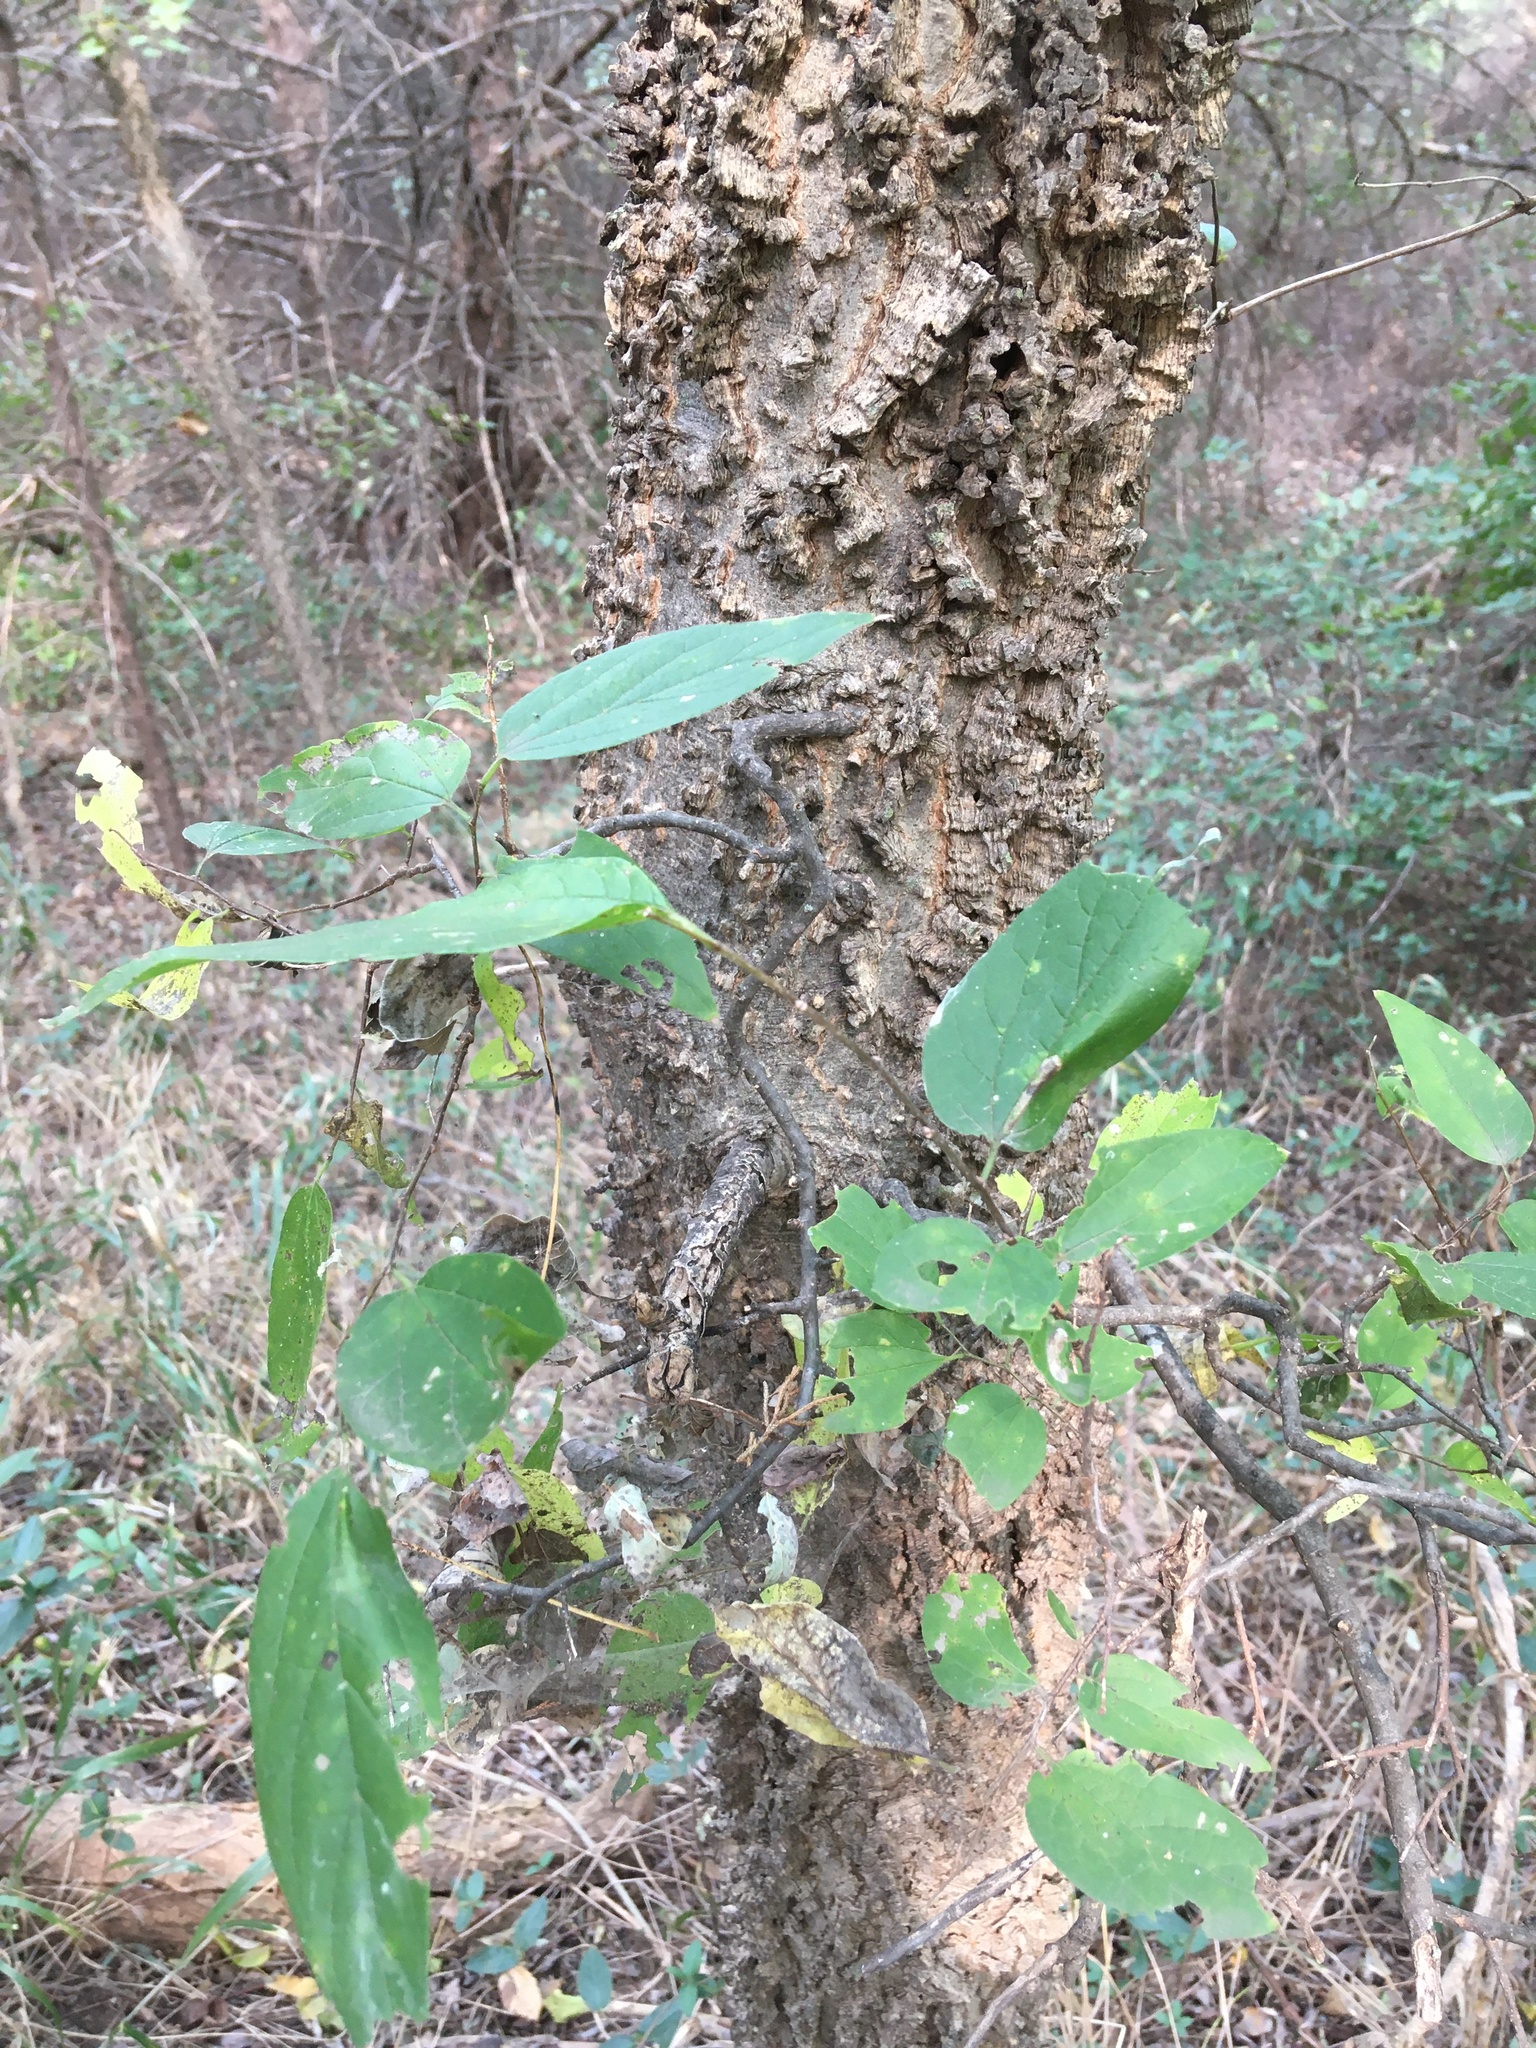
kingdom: Plantae
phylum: Tracheophyta
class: Magnoliopsida
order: Rosales
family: Cannabaceae
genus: Celtis
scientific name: Celtis laevigata
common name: Sugarberry
